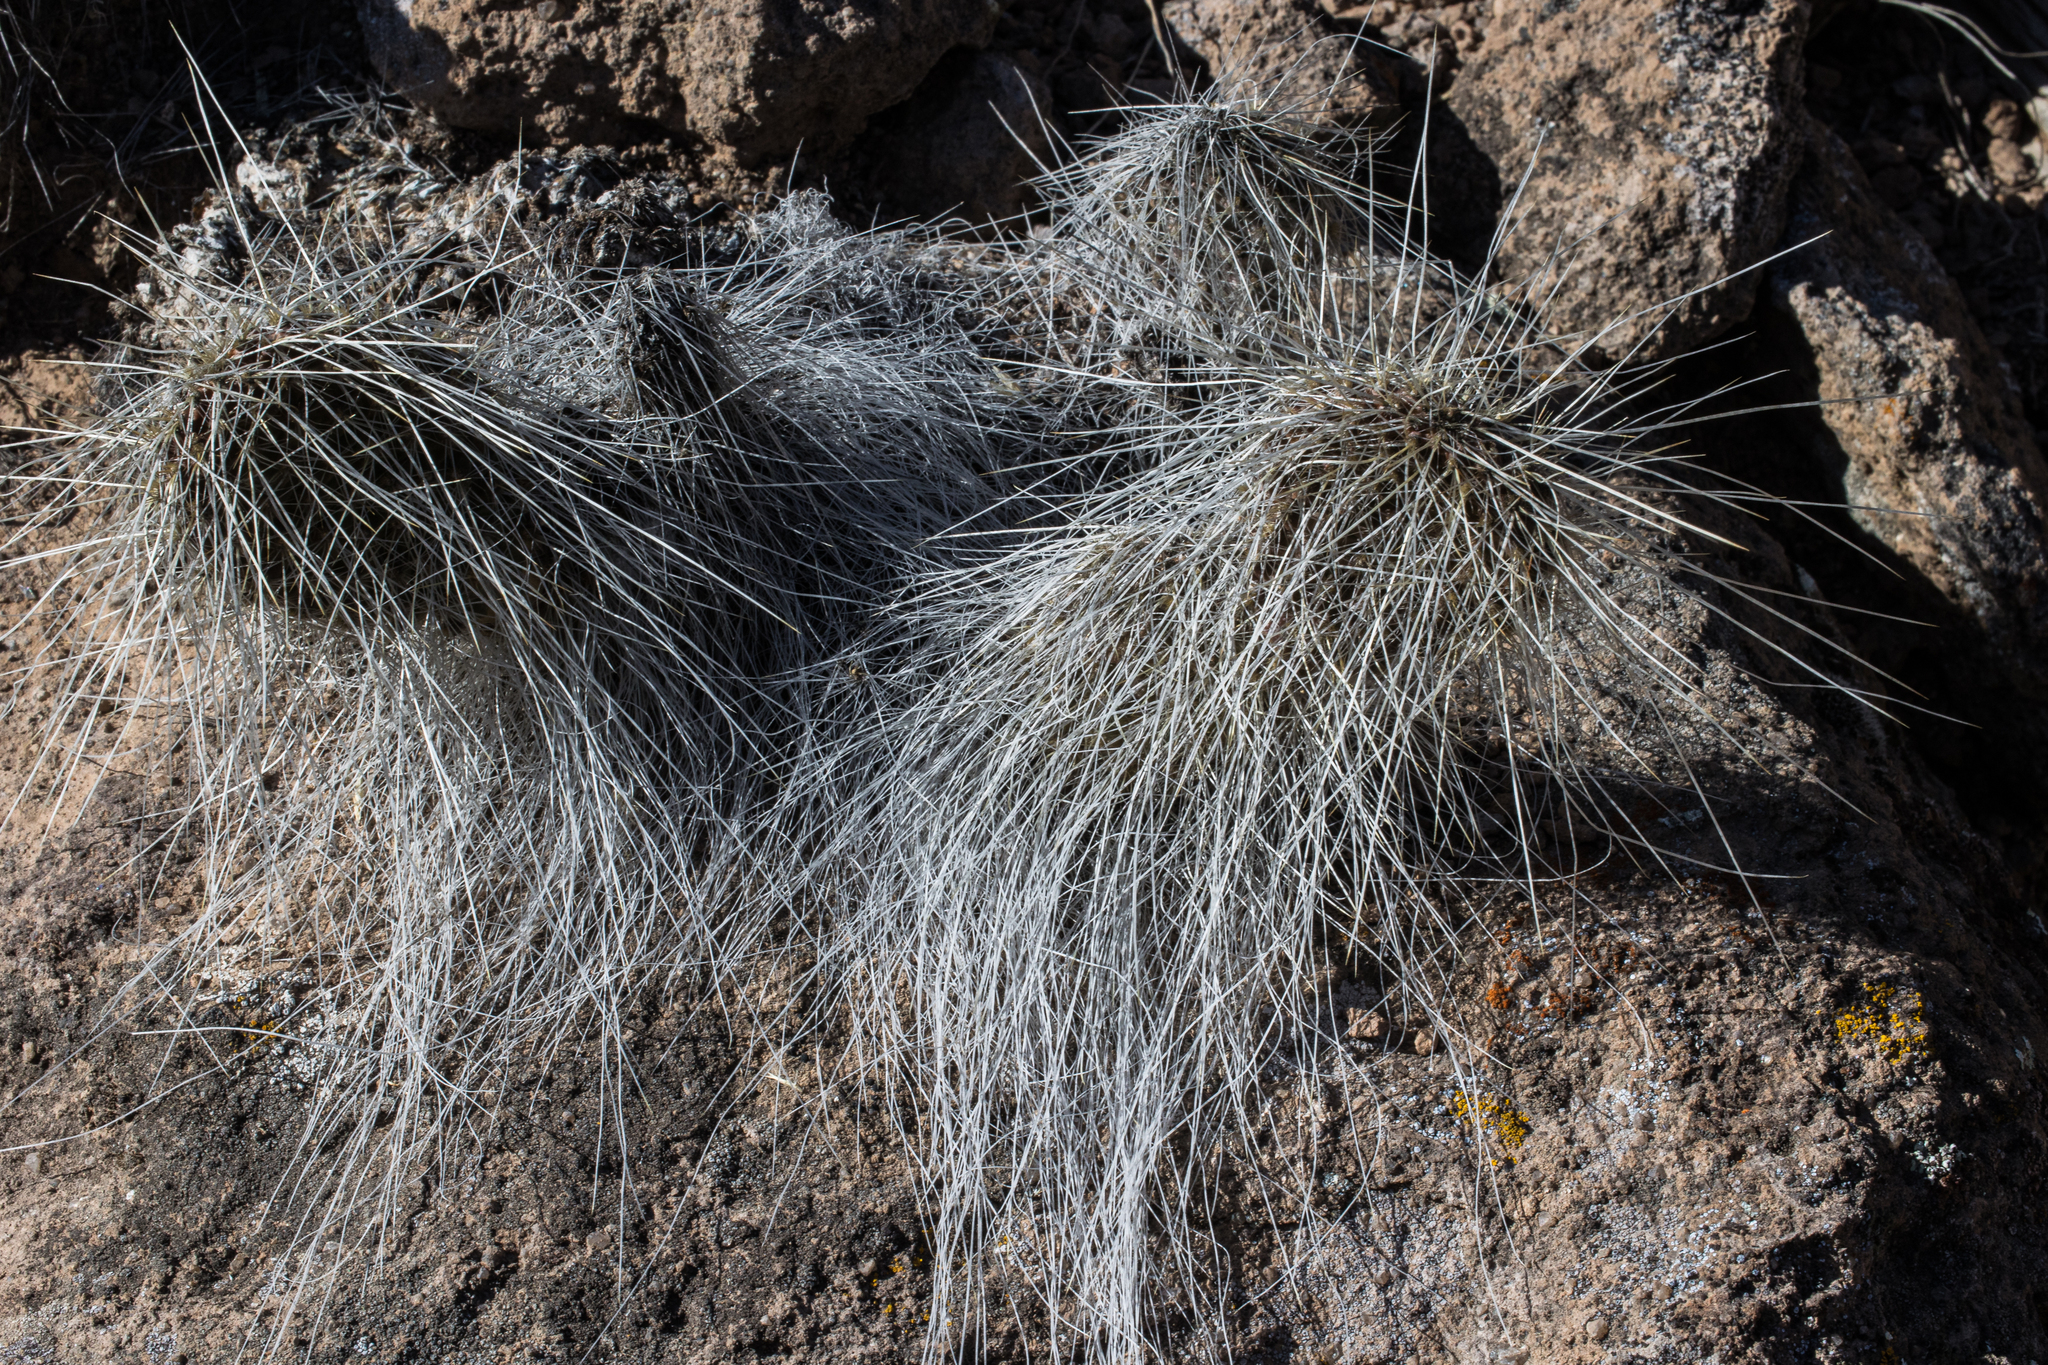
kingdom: Plantae
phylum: Tracheophyta
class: Magnoliopsida
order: Caryophyllales
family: Cactaceae
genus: Opuntia
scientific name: Opuntia polyacantha
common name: Plains prickly-pear
